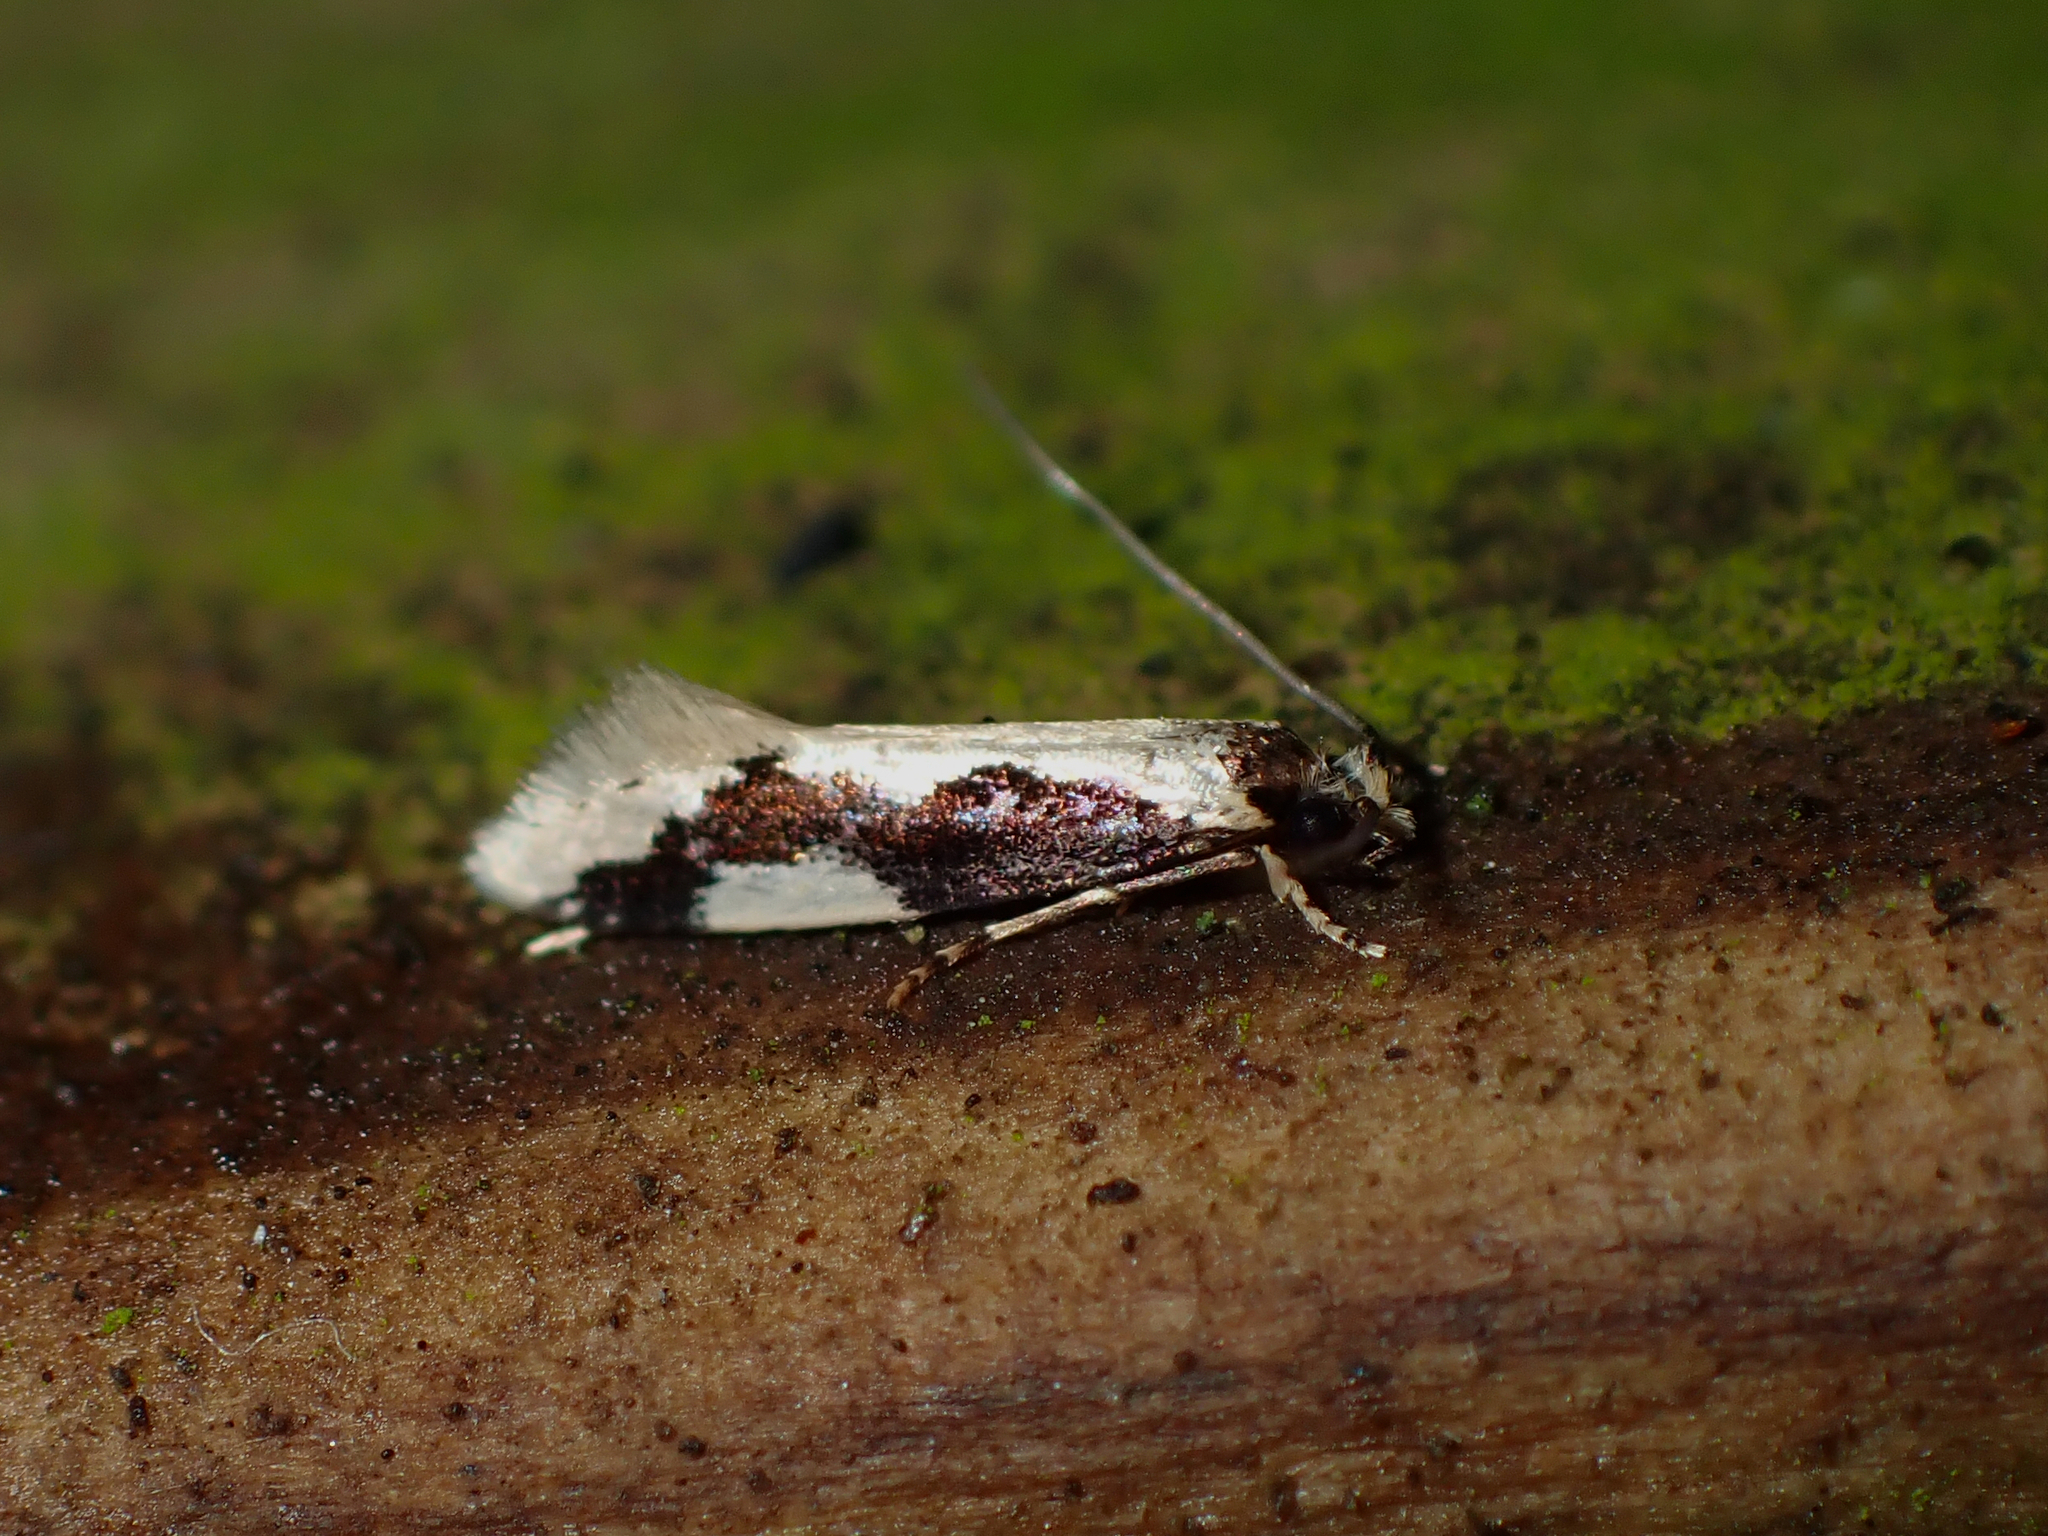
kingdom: Animalia
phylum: Arthropoda
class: Insecta
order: Lepidoptera
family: Tineidae
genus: Thallostoma
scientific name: Thallostoma eurygrapha
